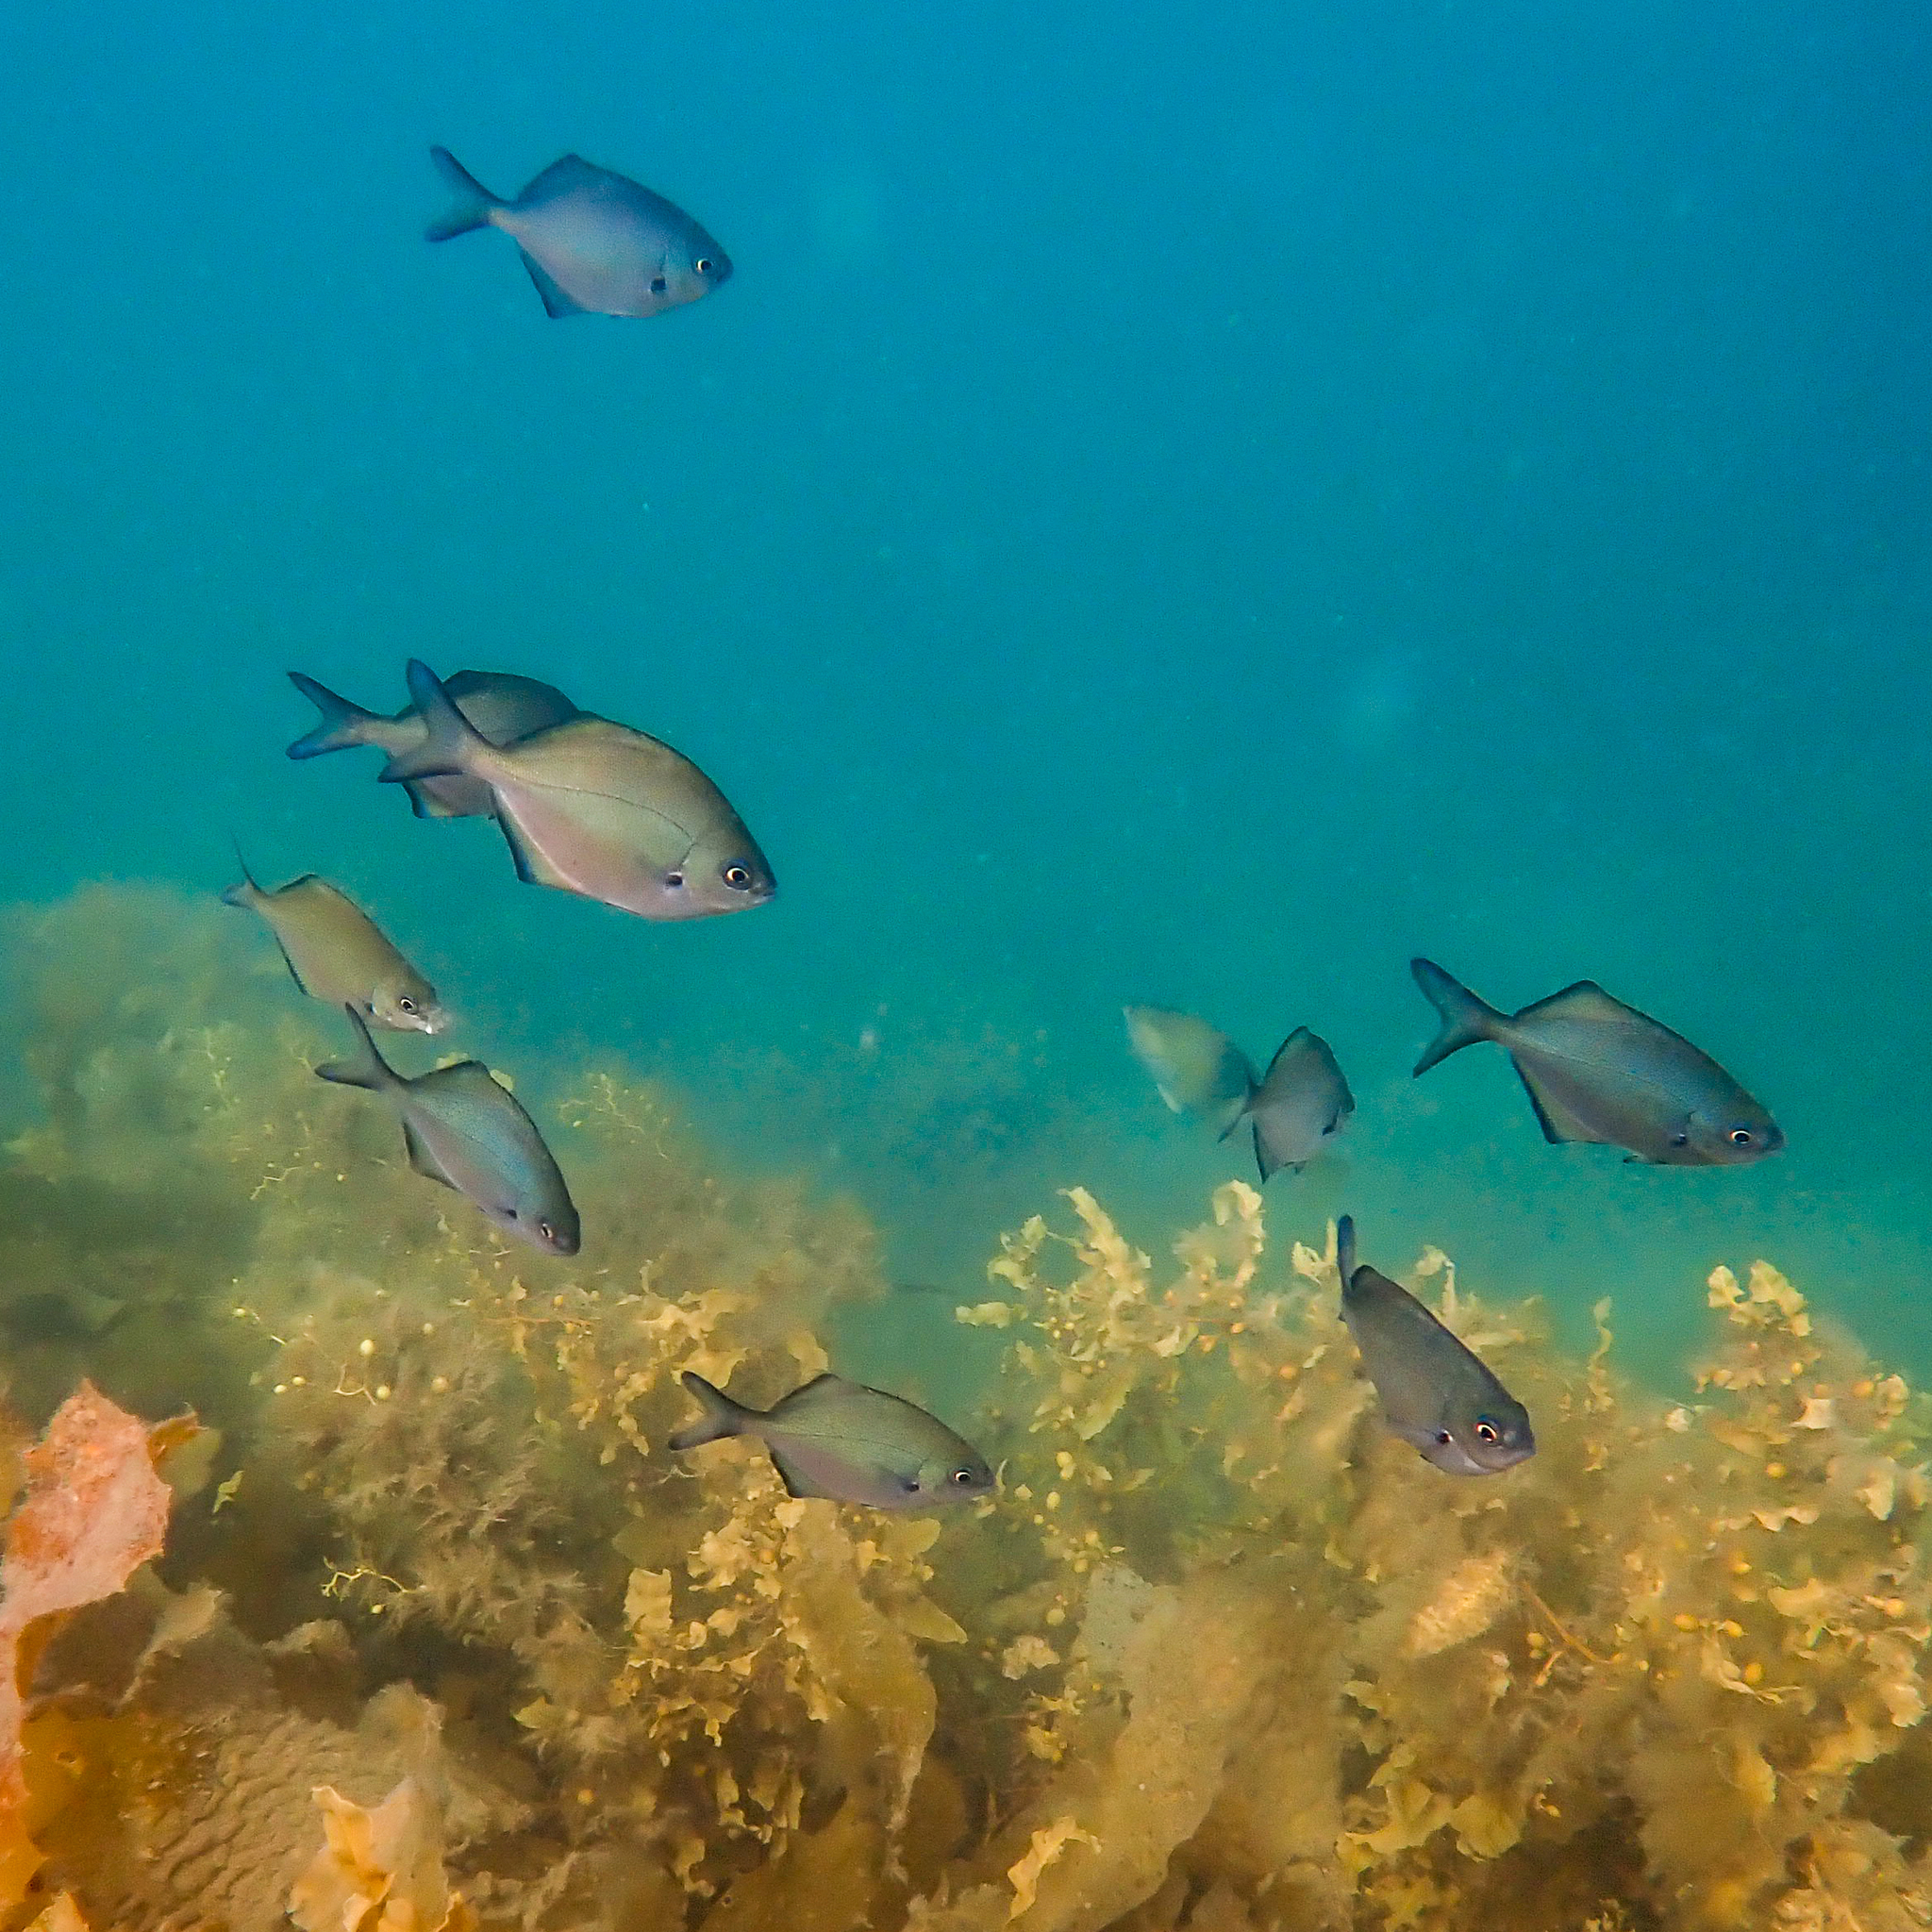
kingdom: Animalia
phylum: Chordata
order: Perciformes
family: Kyphosidae
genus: Scorpis
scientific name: Scorpis lineolata
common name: Sweep
